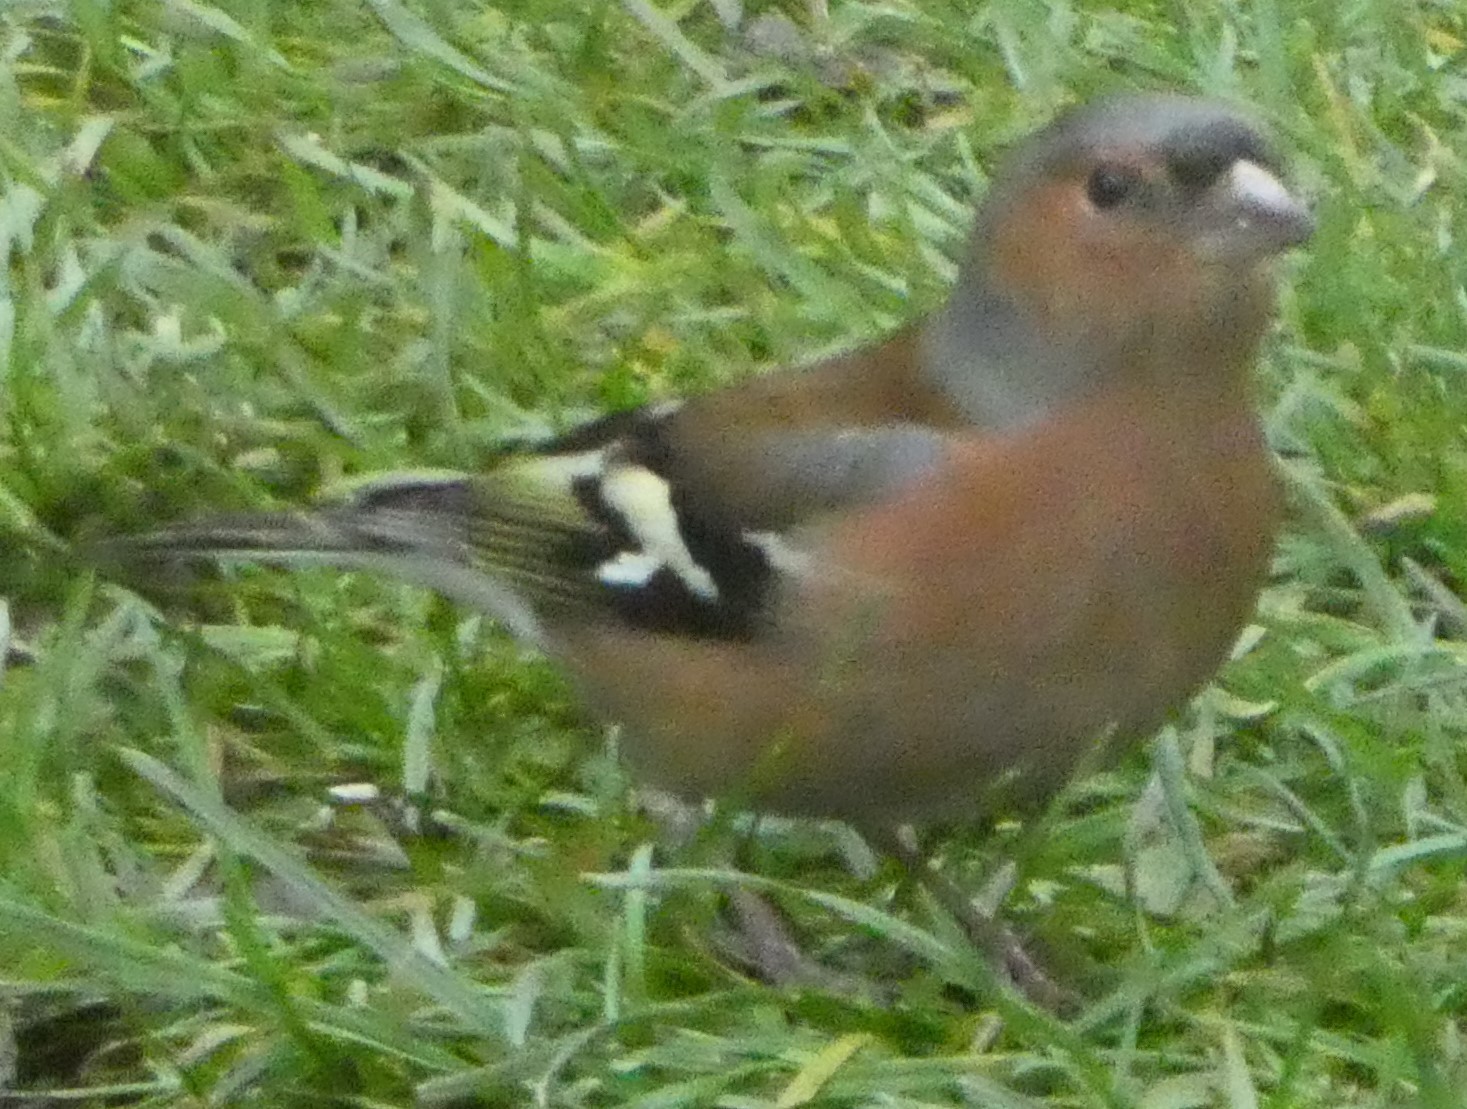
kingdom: Animalia
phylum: Chordata
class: Aves
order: Passeriformes
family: Fringillidae
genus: Fringilla
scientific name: Fringilla coelebs
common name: Common chaffinch
